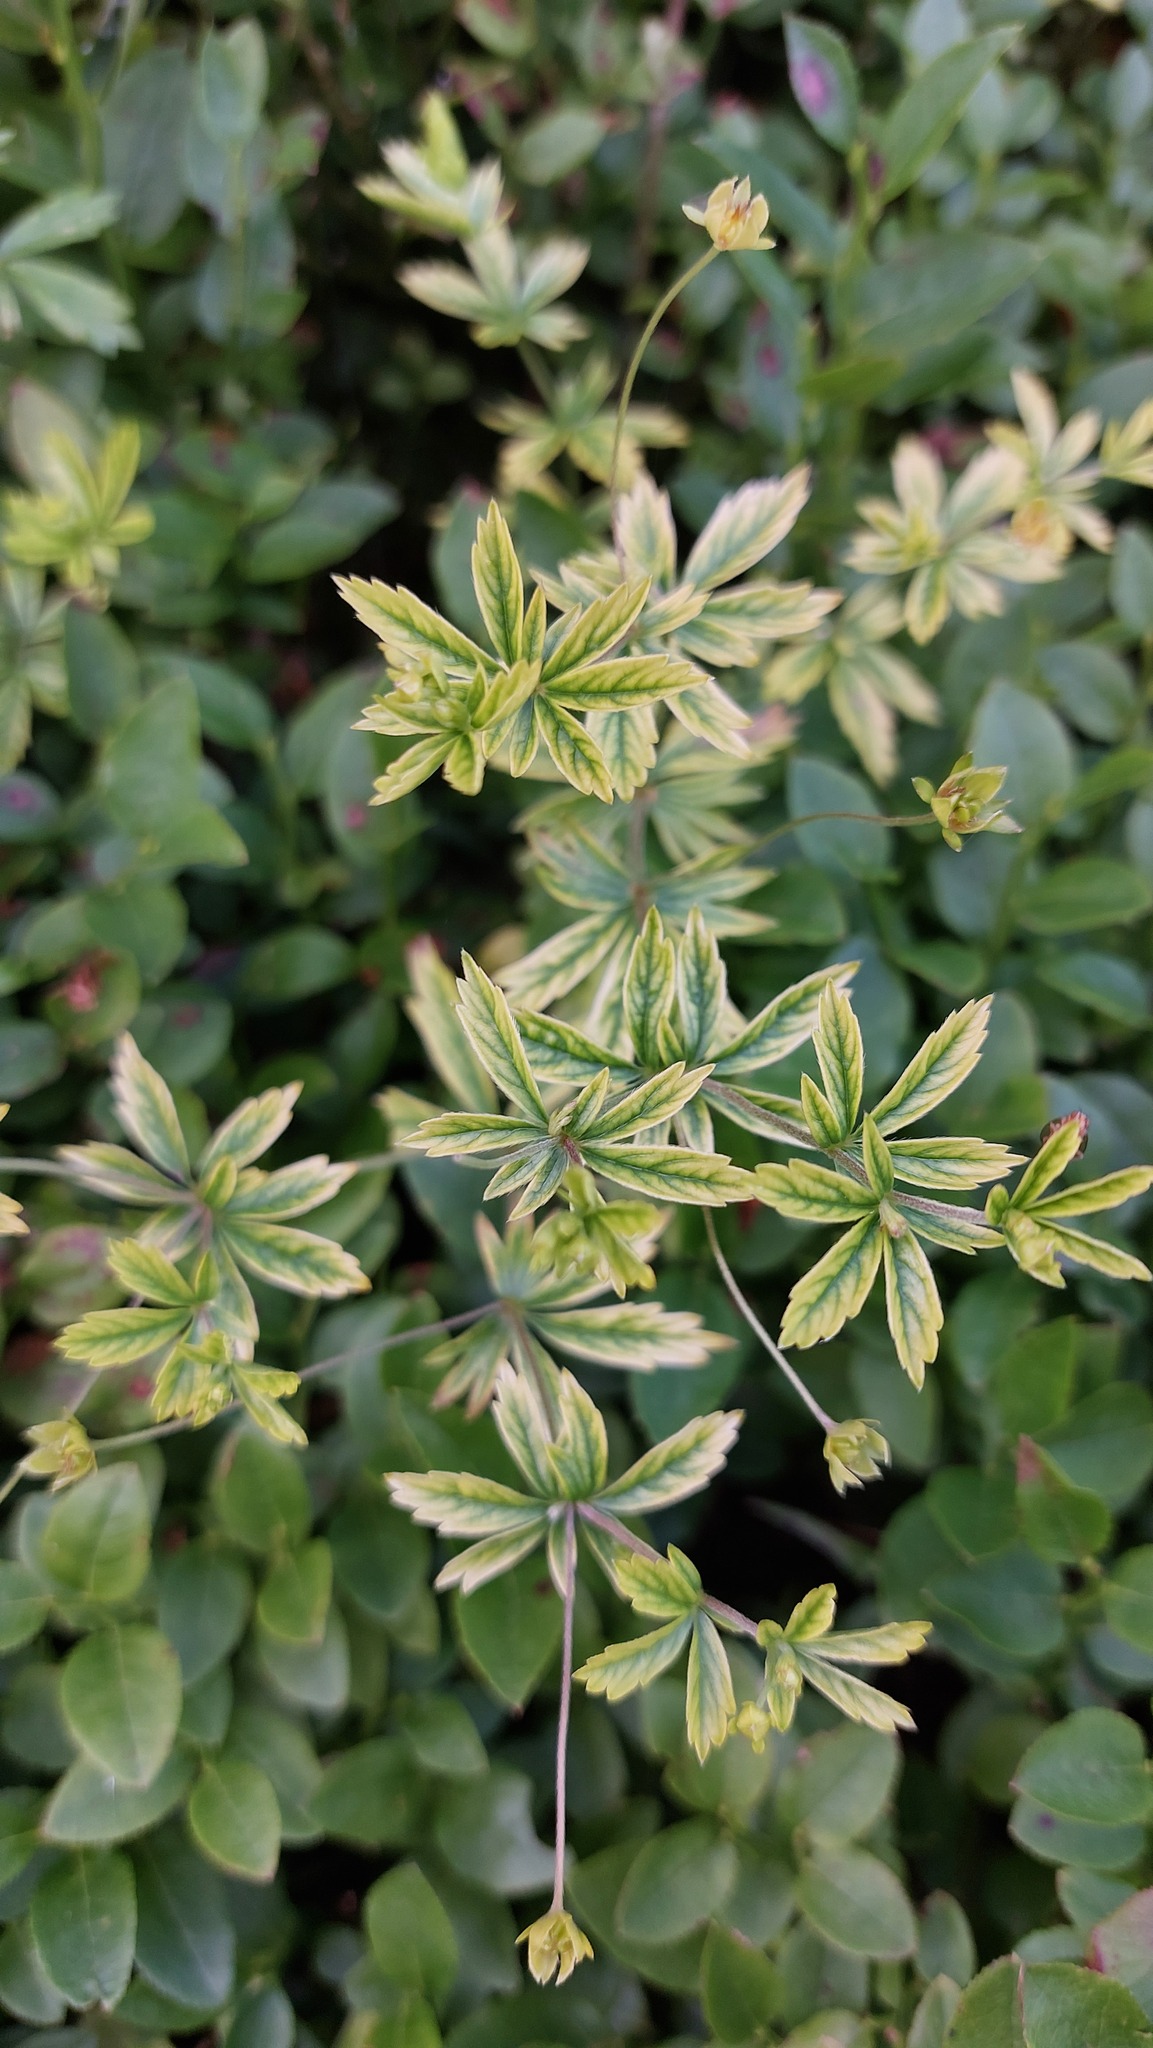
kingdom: Plantae
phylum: Tracheophyta
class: Magnoliopsida
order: Rosales
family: Rosaceae
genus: Potentilla
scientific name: Potentilla erecta
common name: Tormentil
